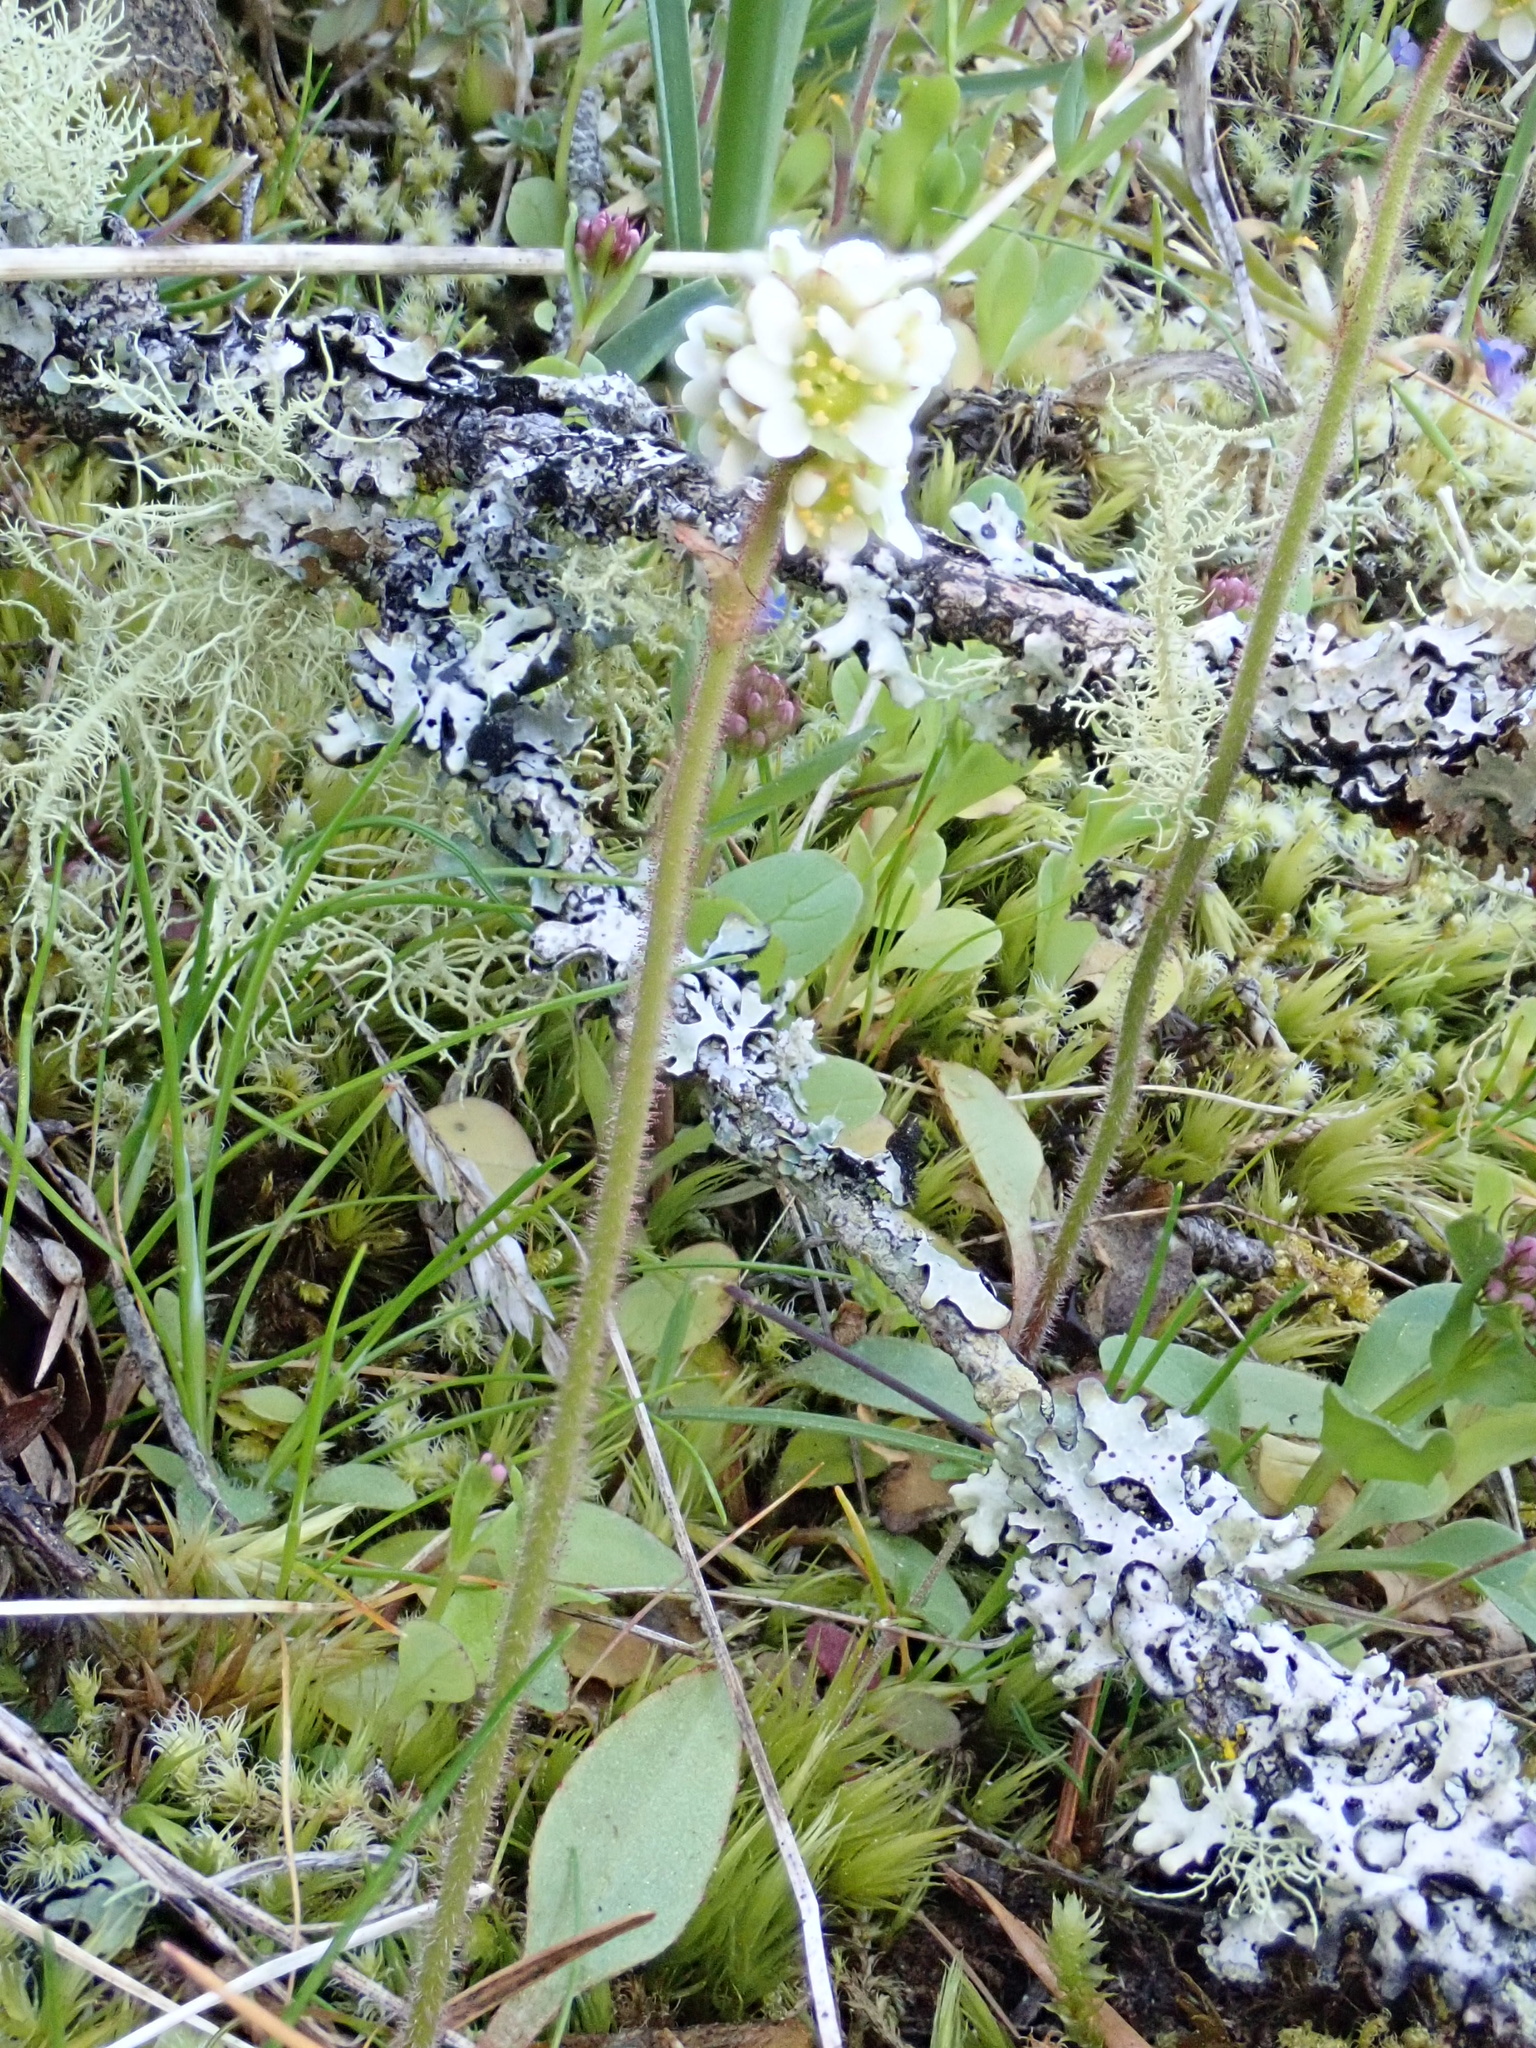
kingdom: Plantae
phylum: Tracheophyta
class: Magnoliopsida
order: Saxifragales
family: Saxifragaceae
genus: Micranthes
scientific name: Micranthes integrifolia
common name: Wholeleaf saxifrage
